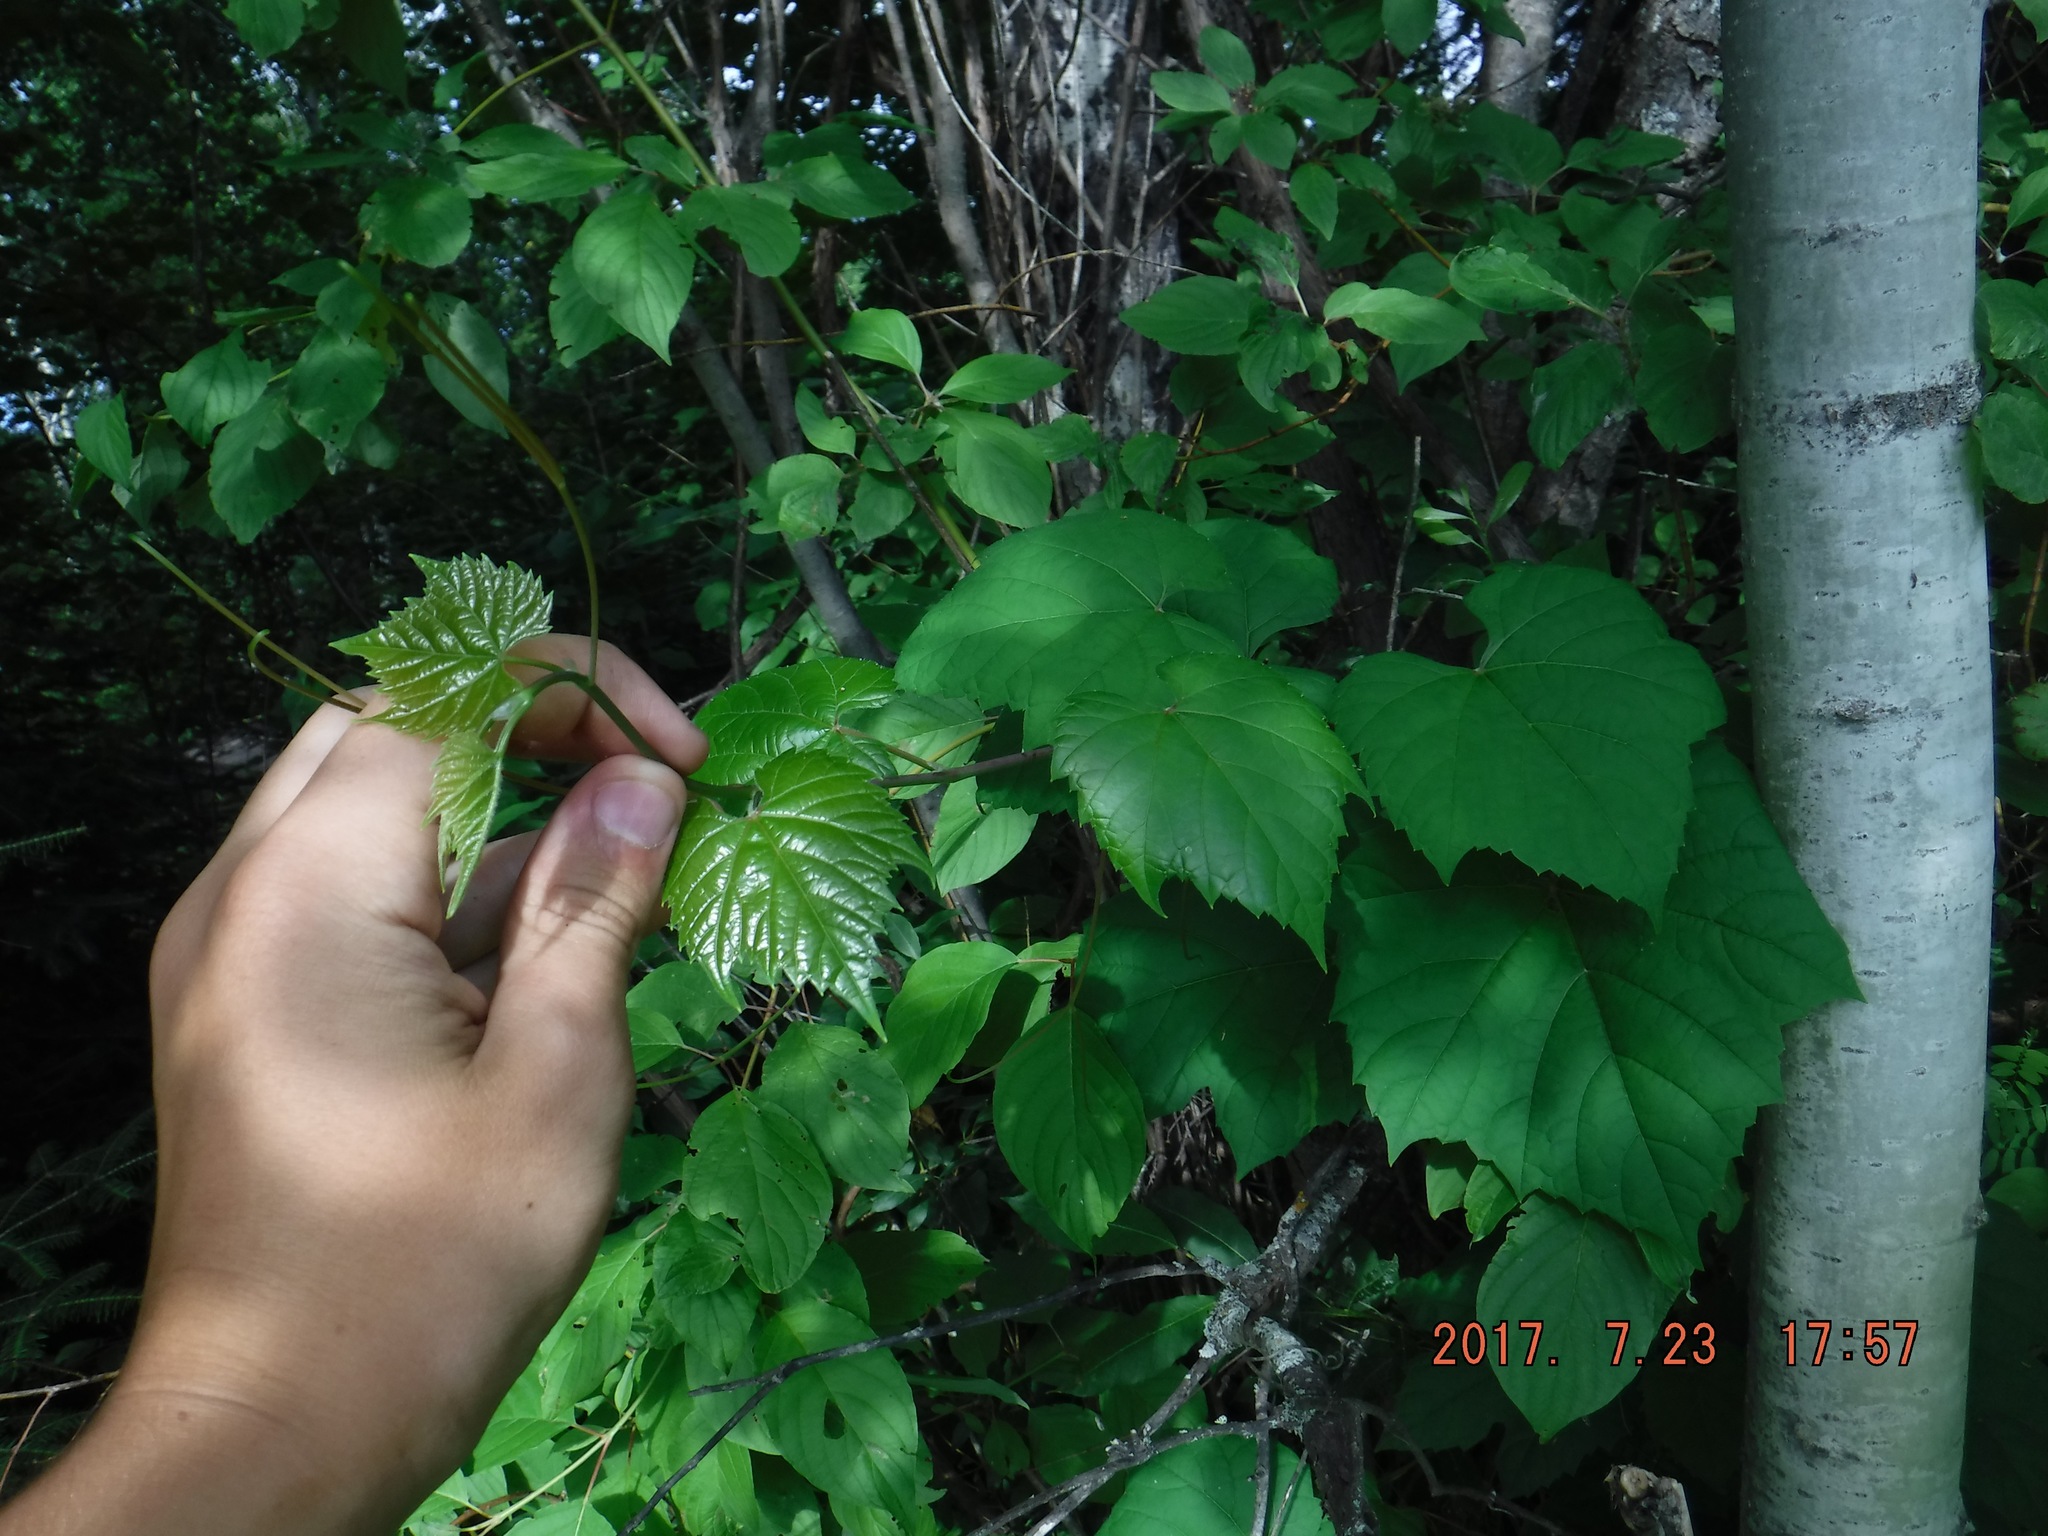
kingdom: Plantae
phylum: Tracheophyta
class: Magnoliopsida
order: Vitales
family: Vitaceae
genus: Vitis
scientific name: Vitis riparia
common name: Frost grape
